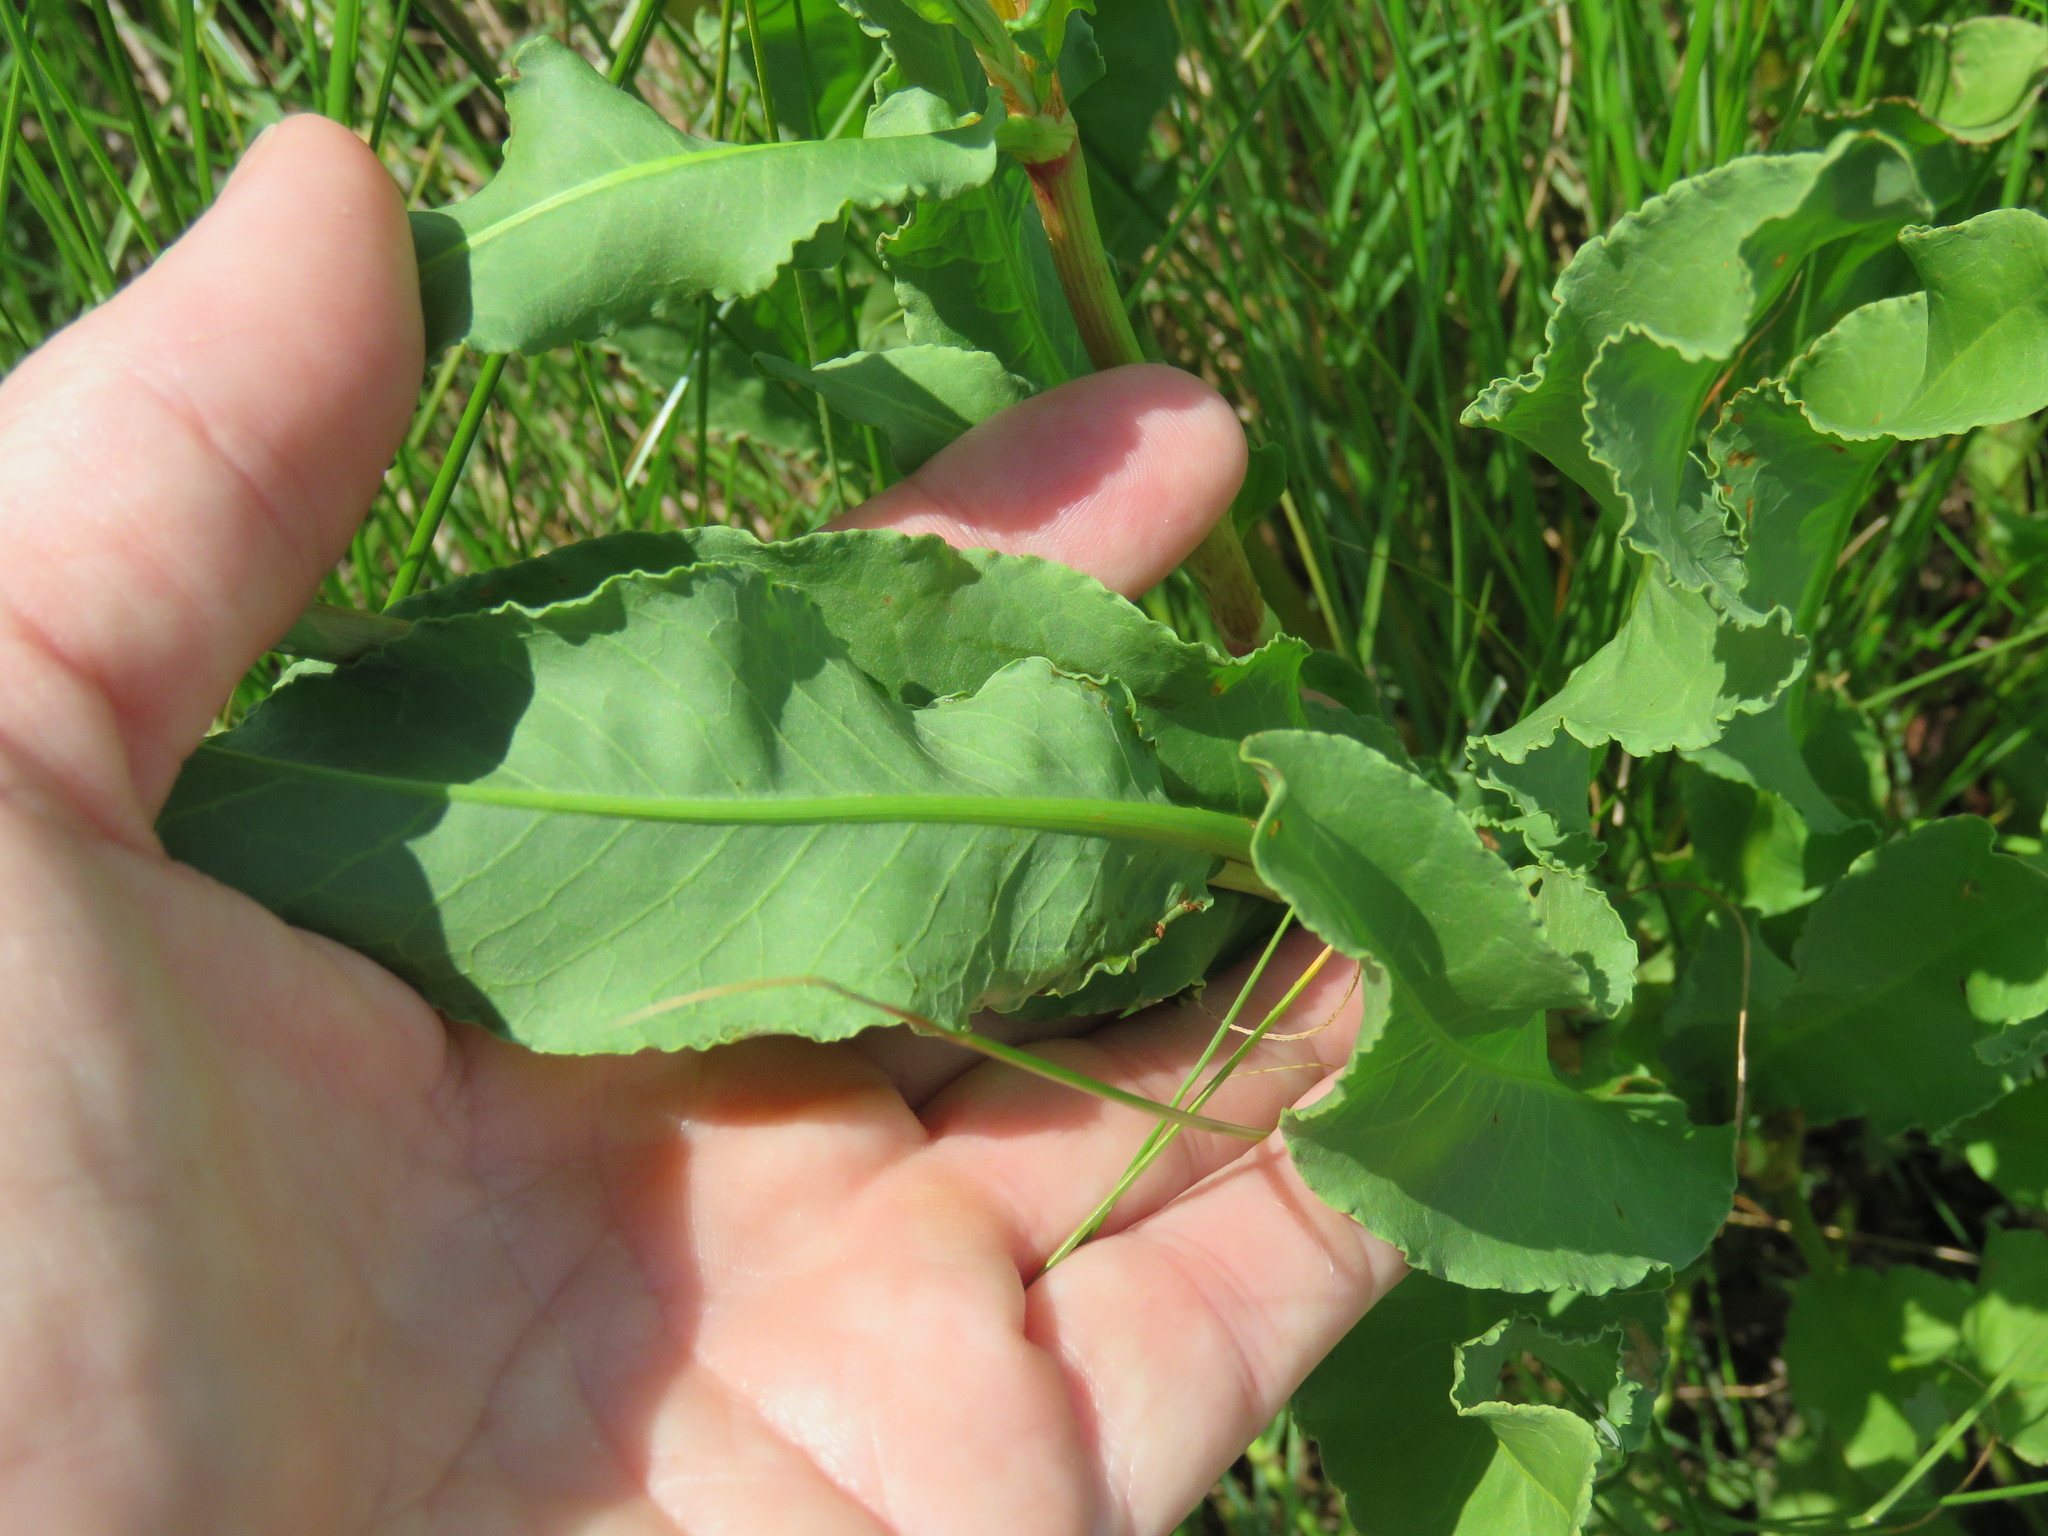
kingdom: Plantae
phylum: Tracheophyta
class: Magnoliopsida
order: Caryophyllales
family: Polygonaceae
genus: Rumex
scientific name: Rumex crispus
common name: Curled dock
